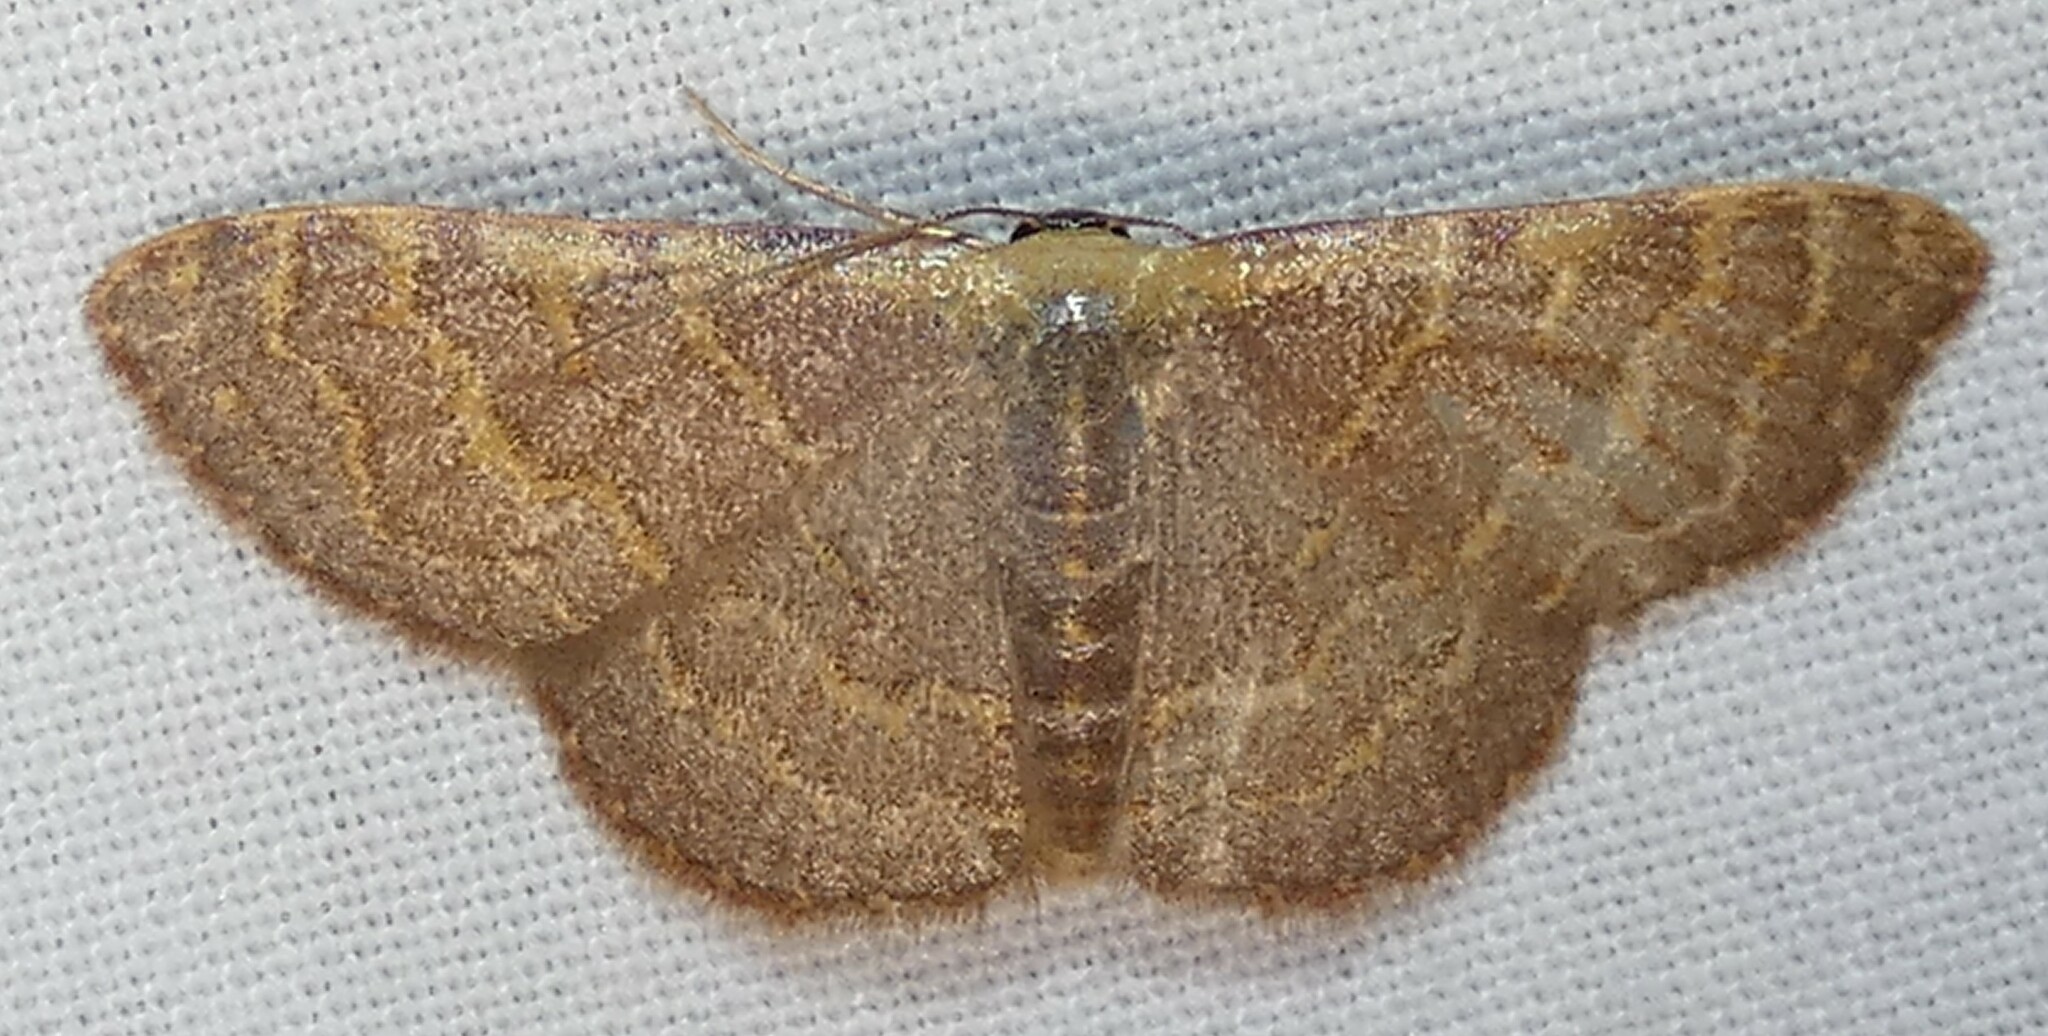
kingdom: Animalia
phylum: Arthropoda
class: Insecta
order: Lepidoptera
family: Geometridae
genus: Leptostales
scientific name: Leptostales pannaria
